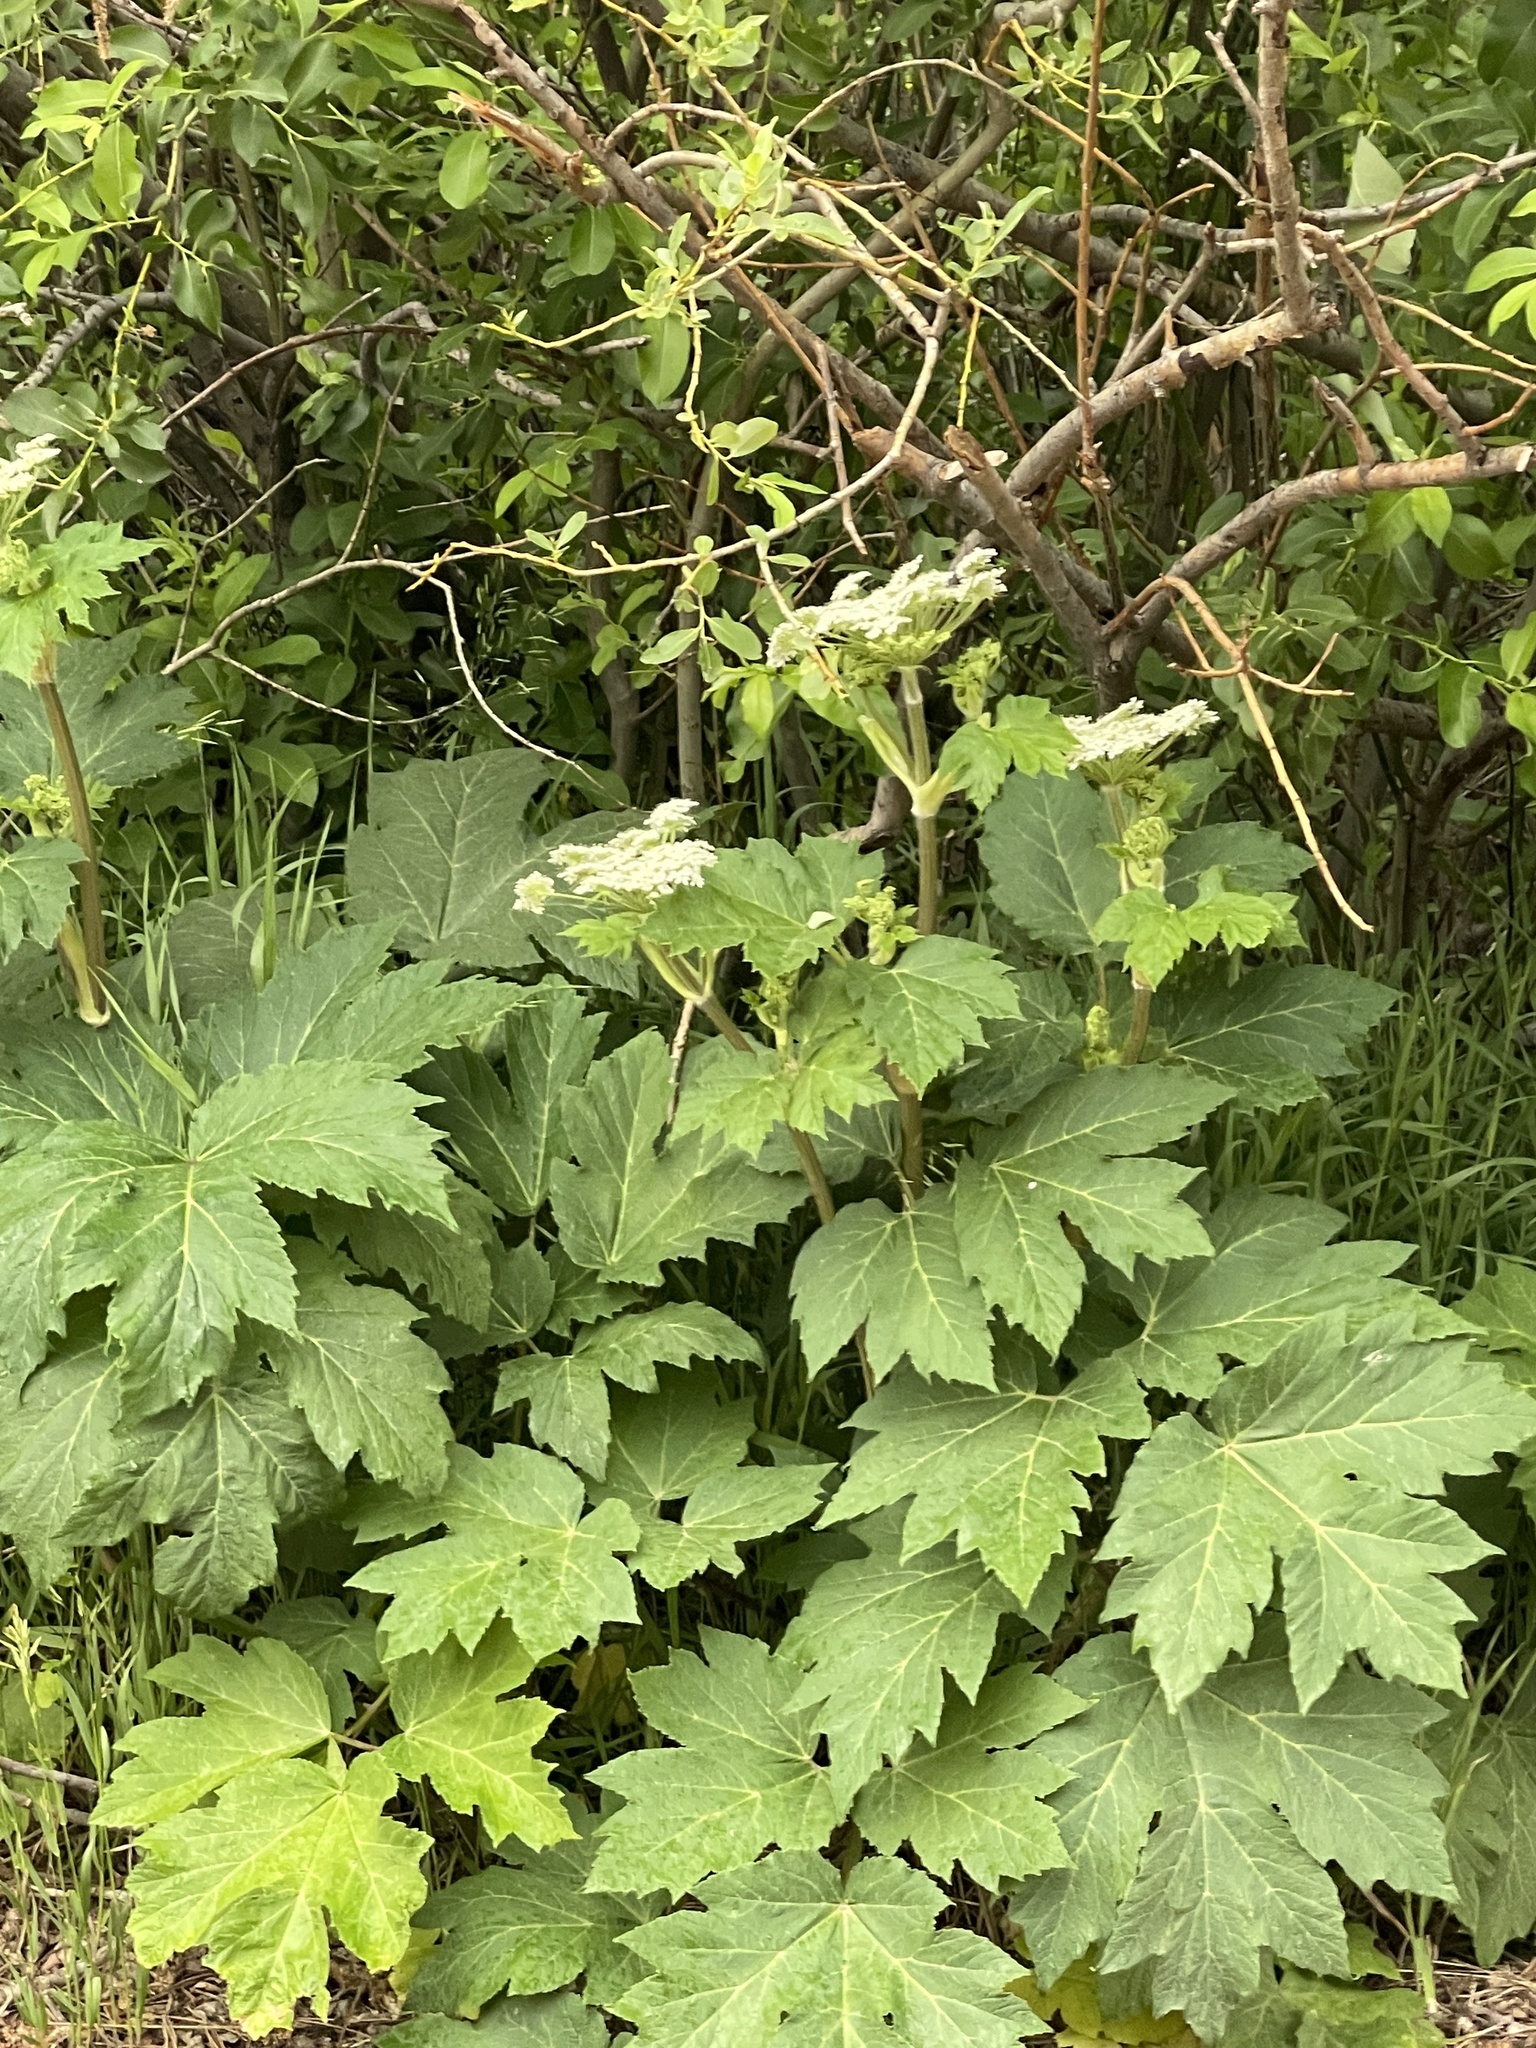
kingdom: Plantae
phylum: Tracheophyta
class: Magnoliopsida
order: Apiales
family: Apiaceae
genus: Heracleum
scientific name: Heracleum maximum
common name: American cow parsnip
